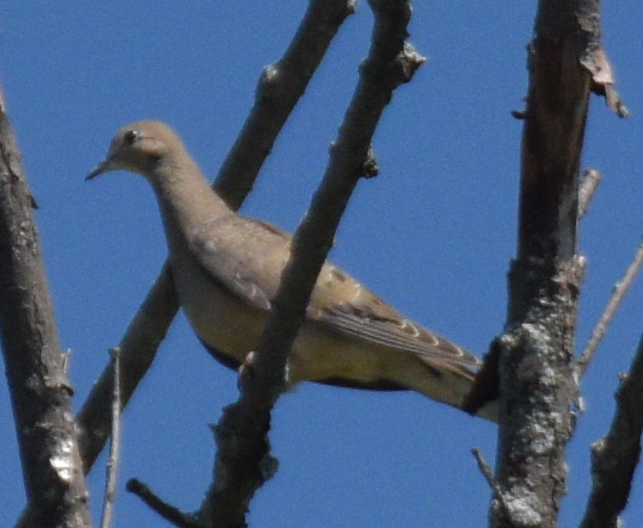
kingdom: Animalia
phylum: Chordata
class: Aves
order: Columbiformes
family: Columbidae
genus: Zenaida
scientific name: Zenaida macroura
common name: Mourning dove
